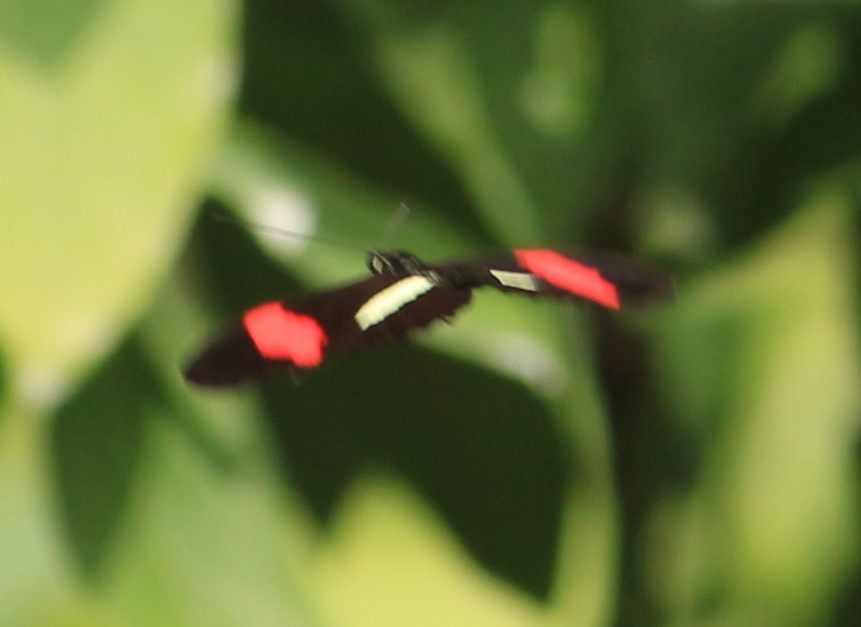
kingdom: Animalia
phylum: Arthropoda
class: Insecta
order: Lepidoptera
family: Nymphalidae
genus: Heliconius
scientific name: Heliconius erato
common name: Common patch longwing
